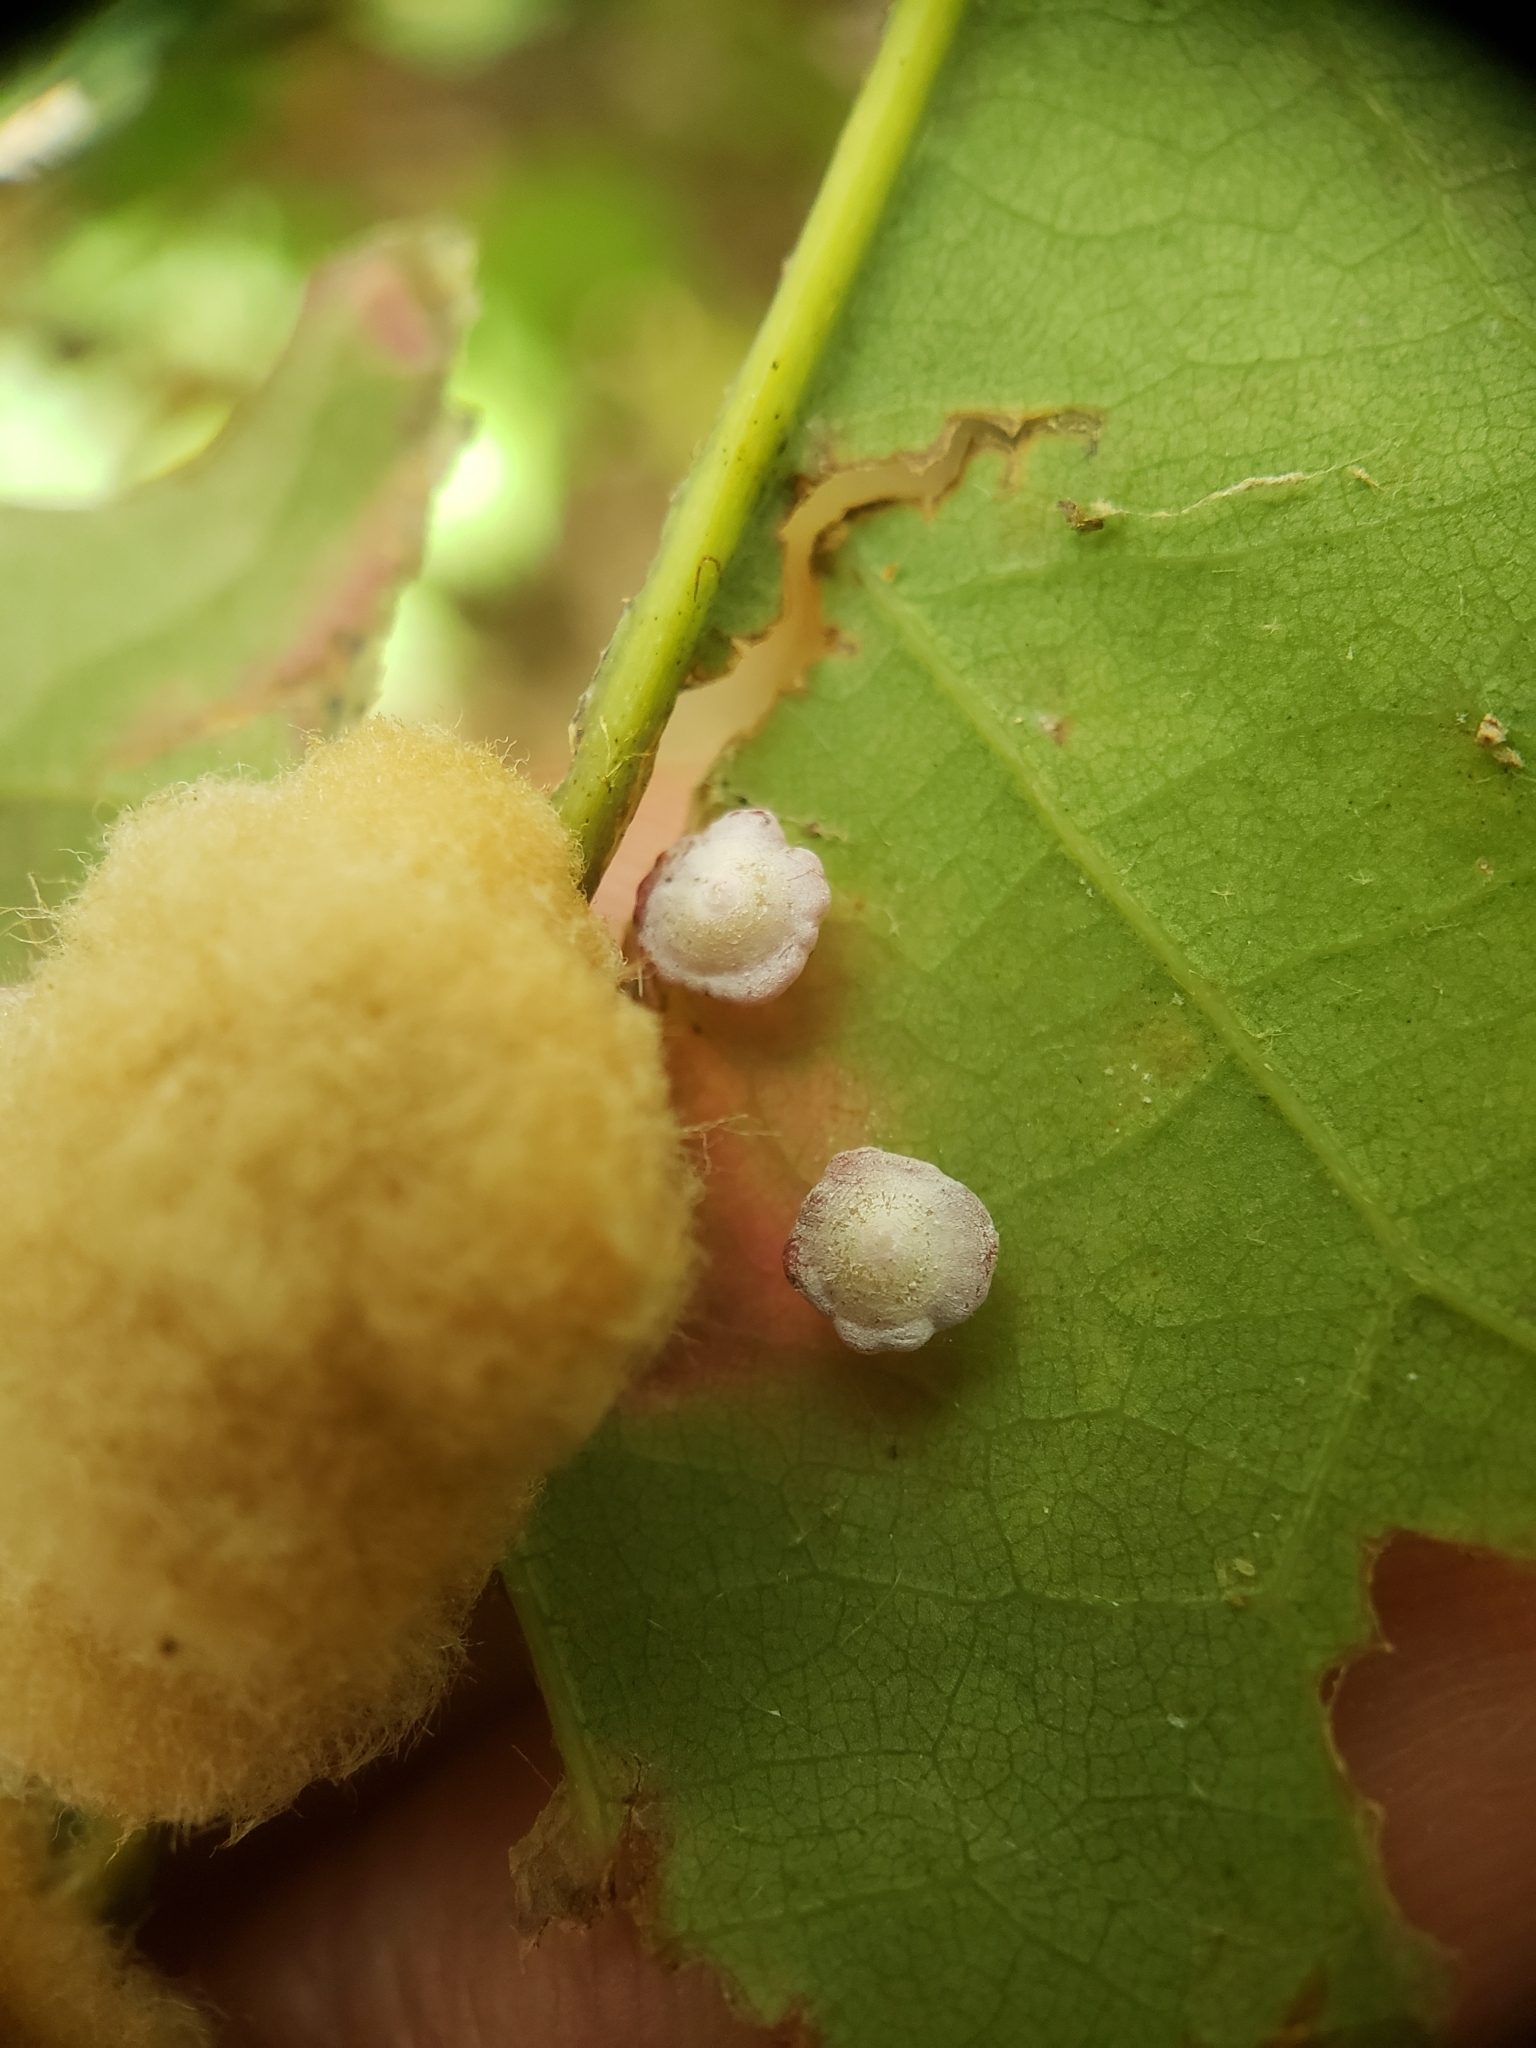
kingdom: Animalia
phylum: Arthropoda
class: Insecta
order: Hymenoptera
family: Cynipidae
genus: Phylloteras
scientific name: Phylloteras poculum
